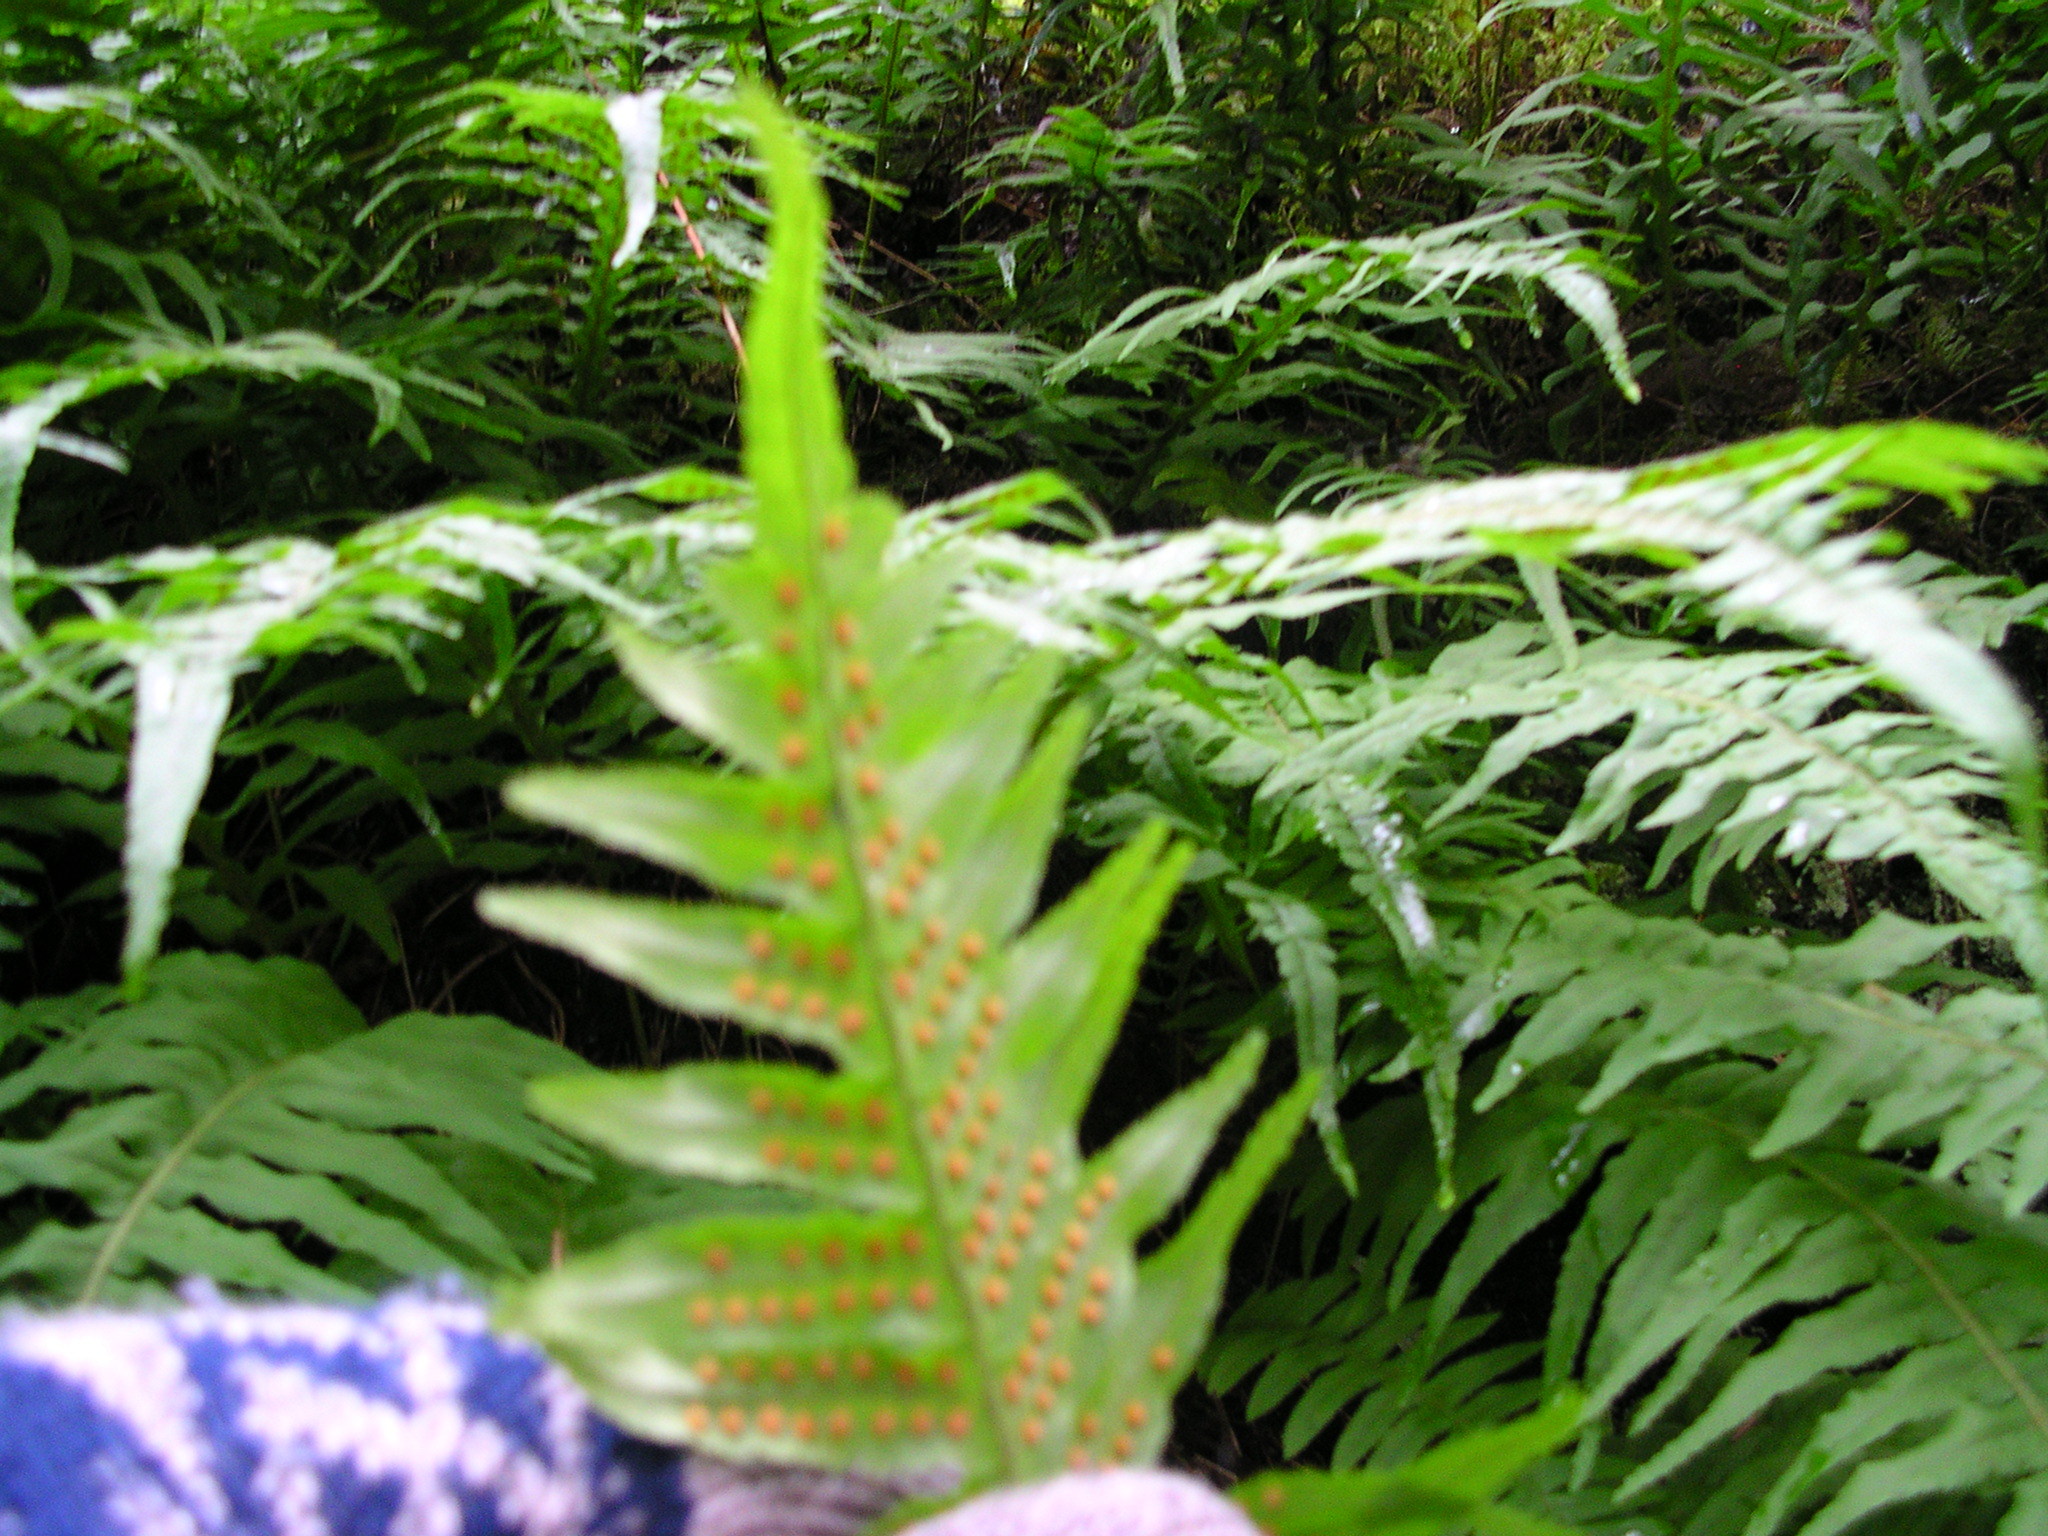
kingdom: Plantae
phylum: Tracheophyta
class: Polypodiopsida
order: Polypodiales
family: Polypodiaceae
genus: Polypodium
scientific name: Polypodium glycyrrhiza
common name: Licorice fern
